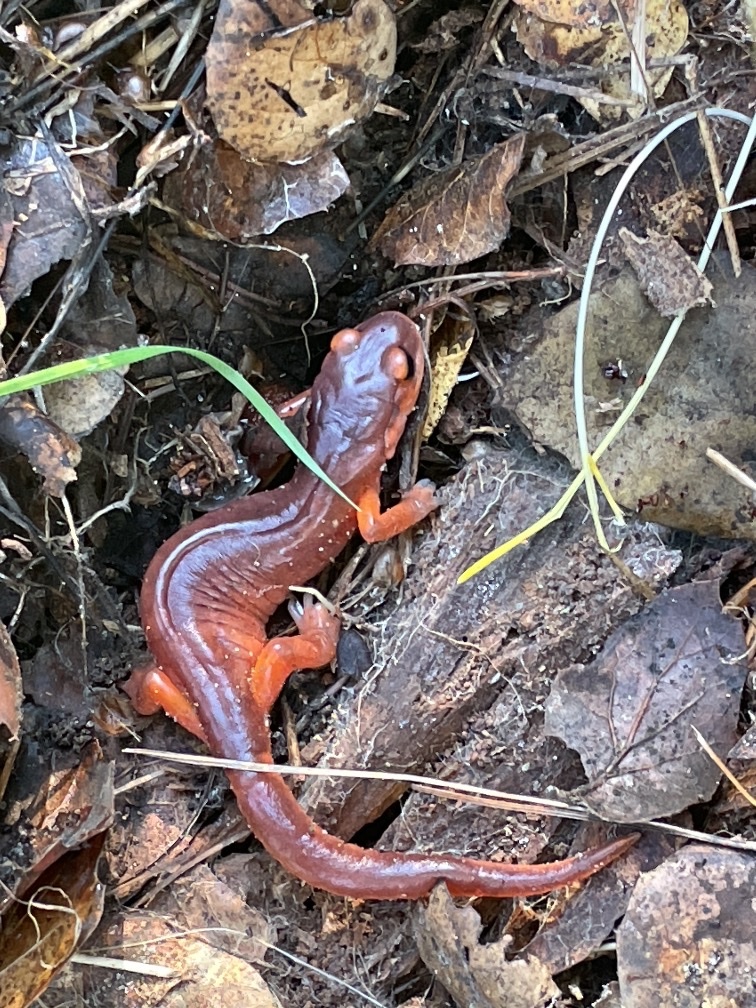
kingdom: Animalia
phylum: Chordata
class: Amphibia
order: Caudata
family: Plethodontidae
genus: Ensatina
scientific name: Ensatina eschscholtzii
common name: Ensatina
